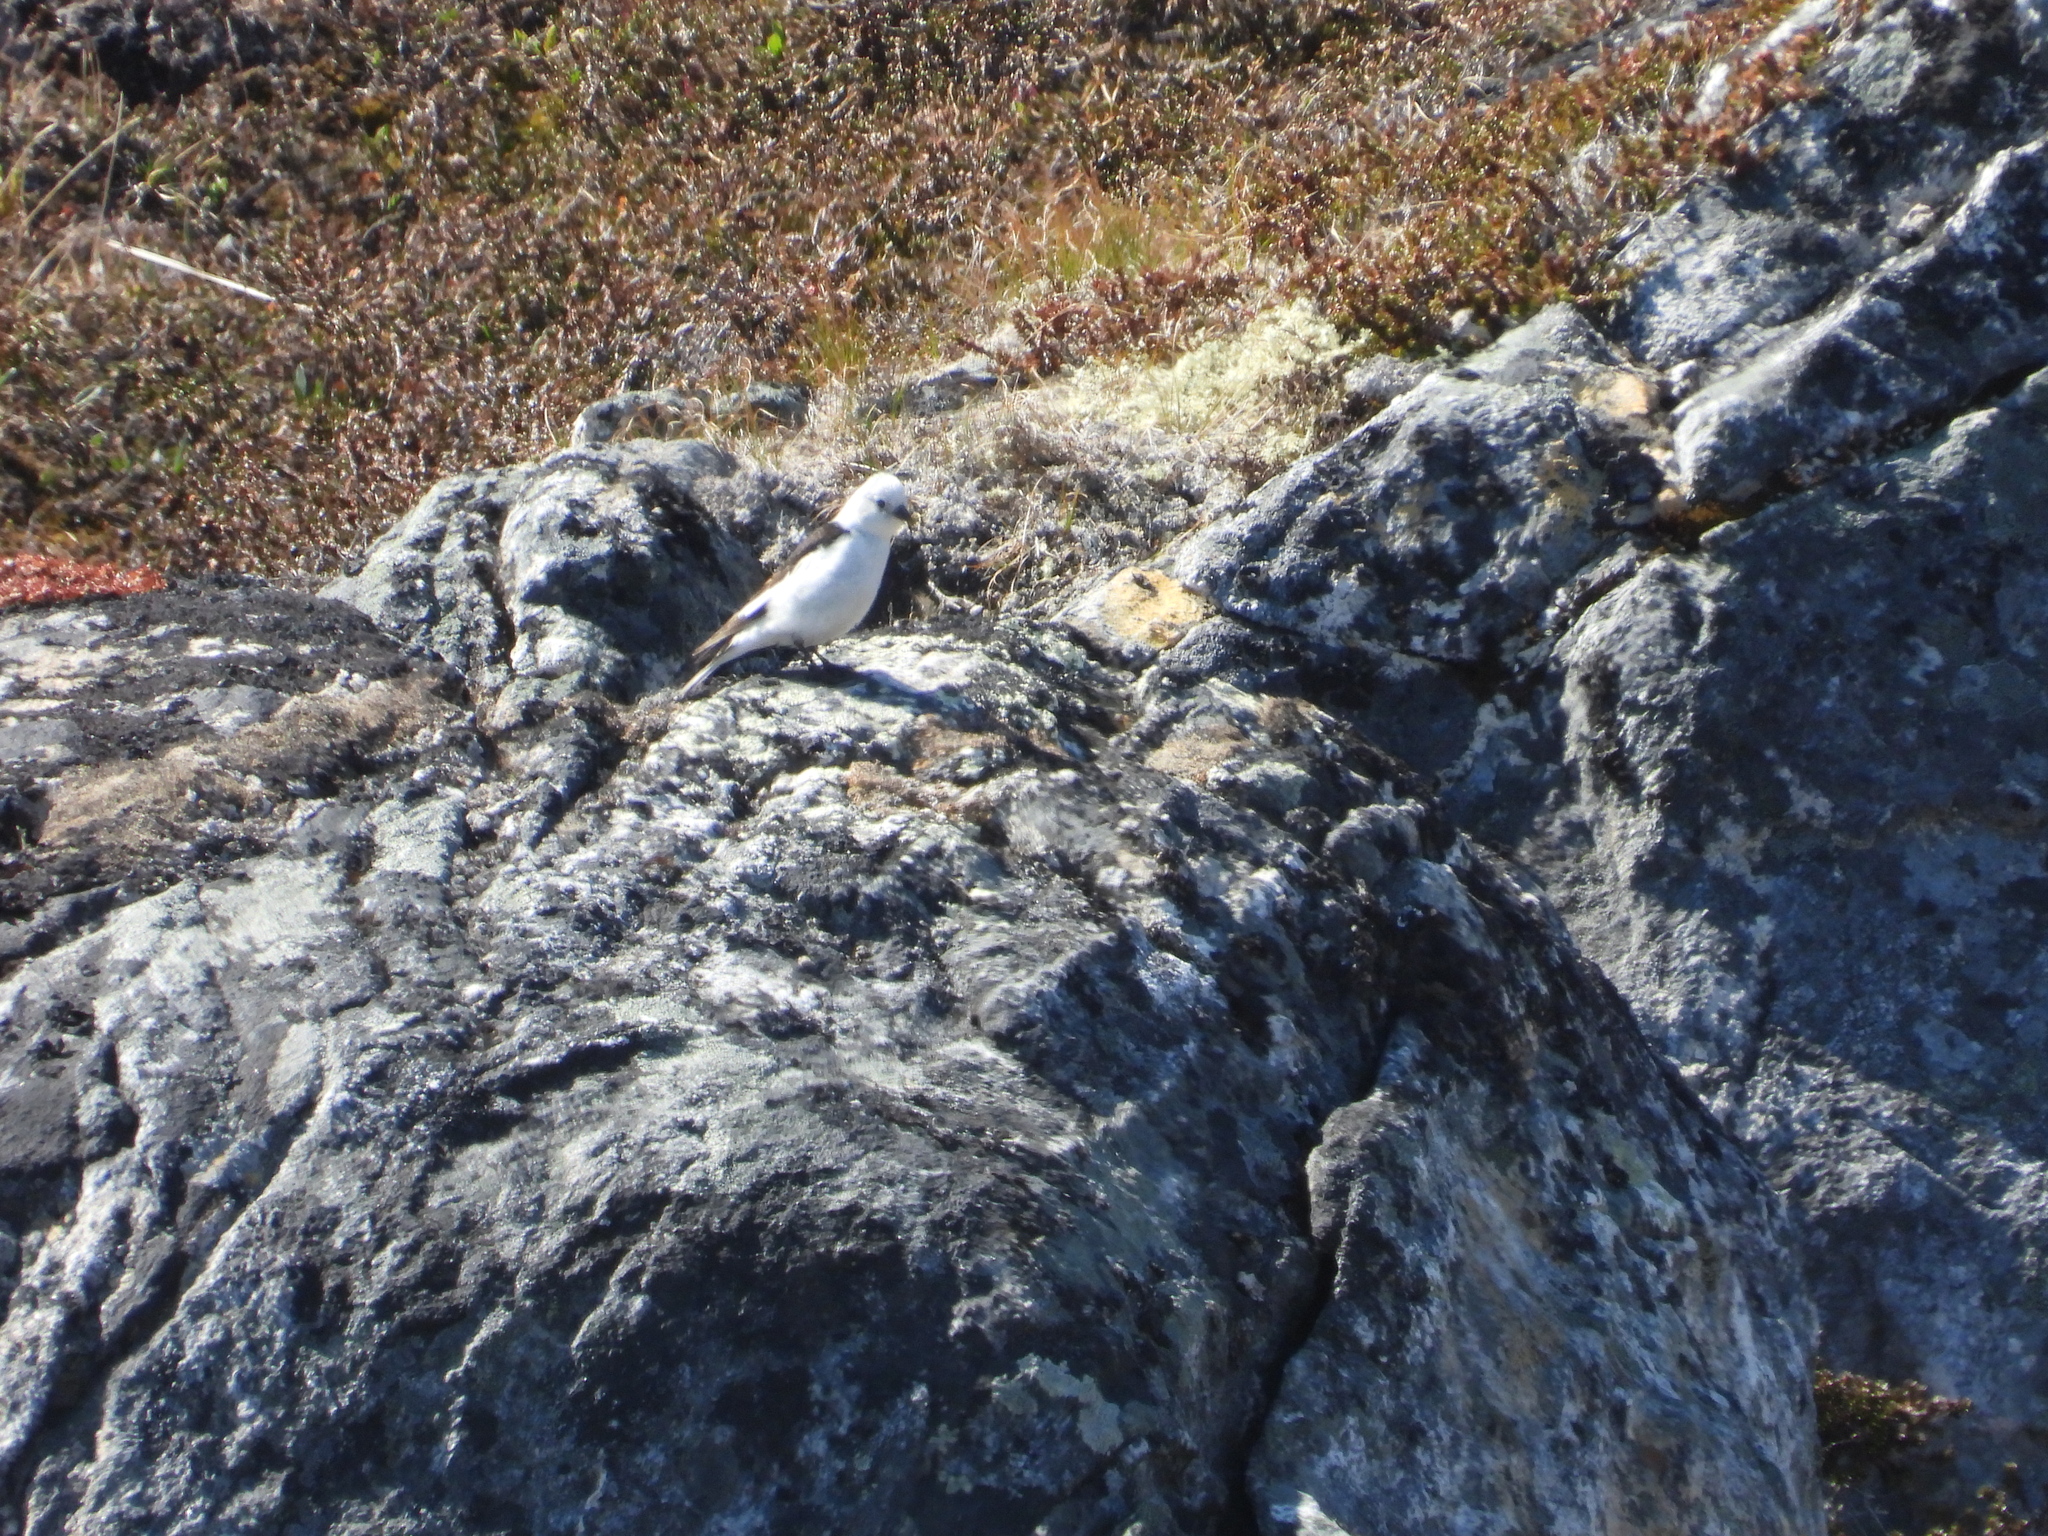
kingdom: Animalia
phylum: Chordata
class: Aves
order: Passeriformes
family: Calcariidae
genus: Plectrophenax
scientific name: Plectrophenax nivalis
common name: Snow bunting
